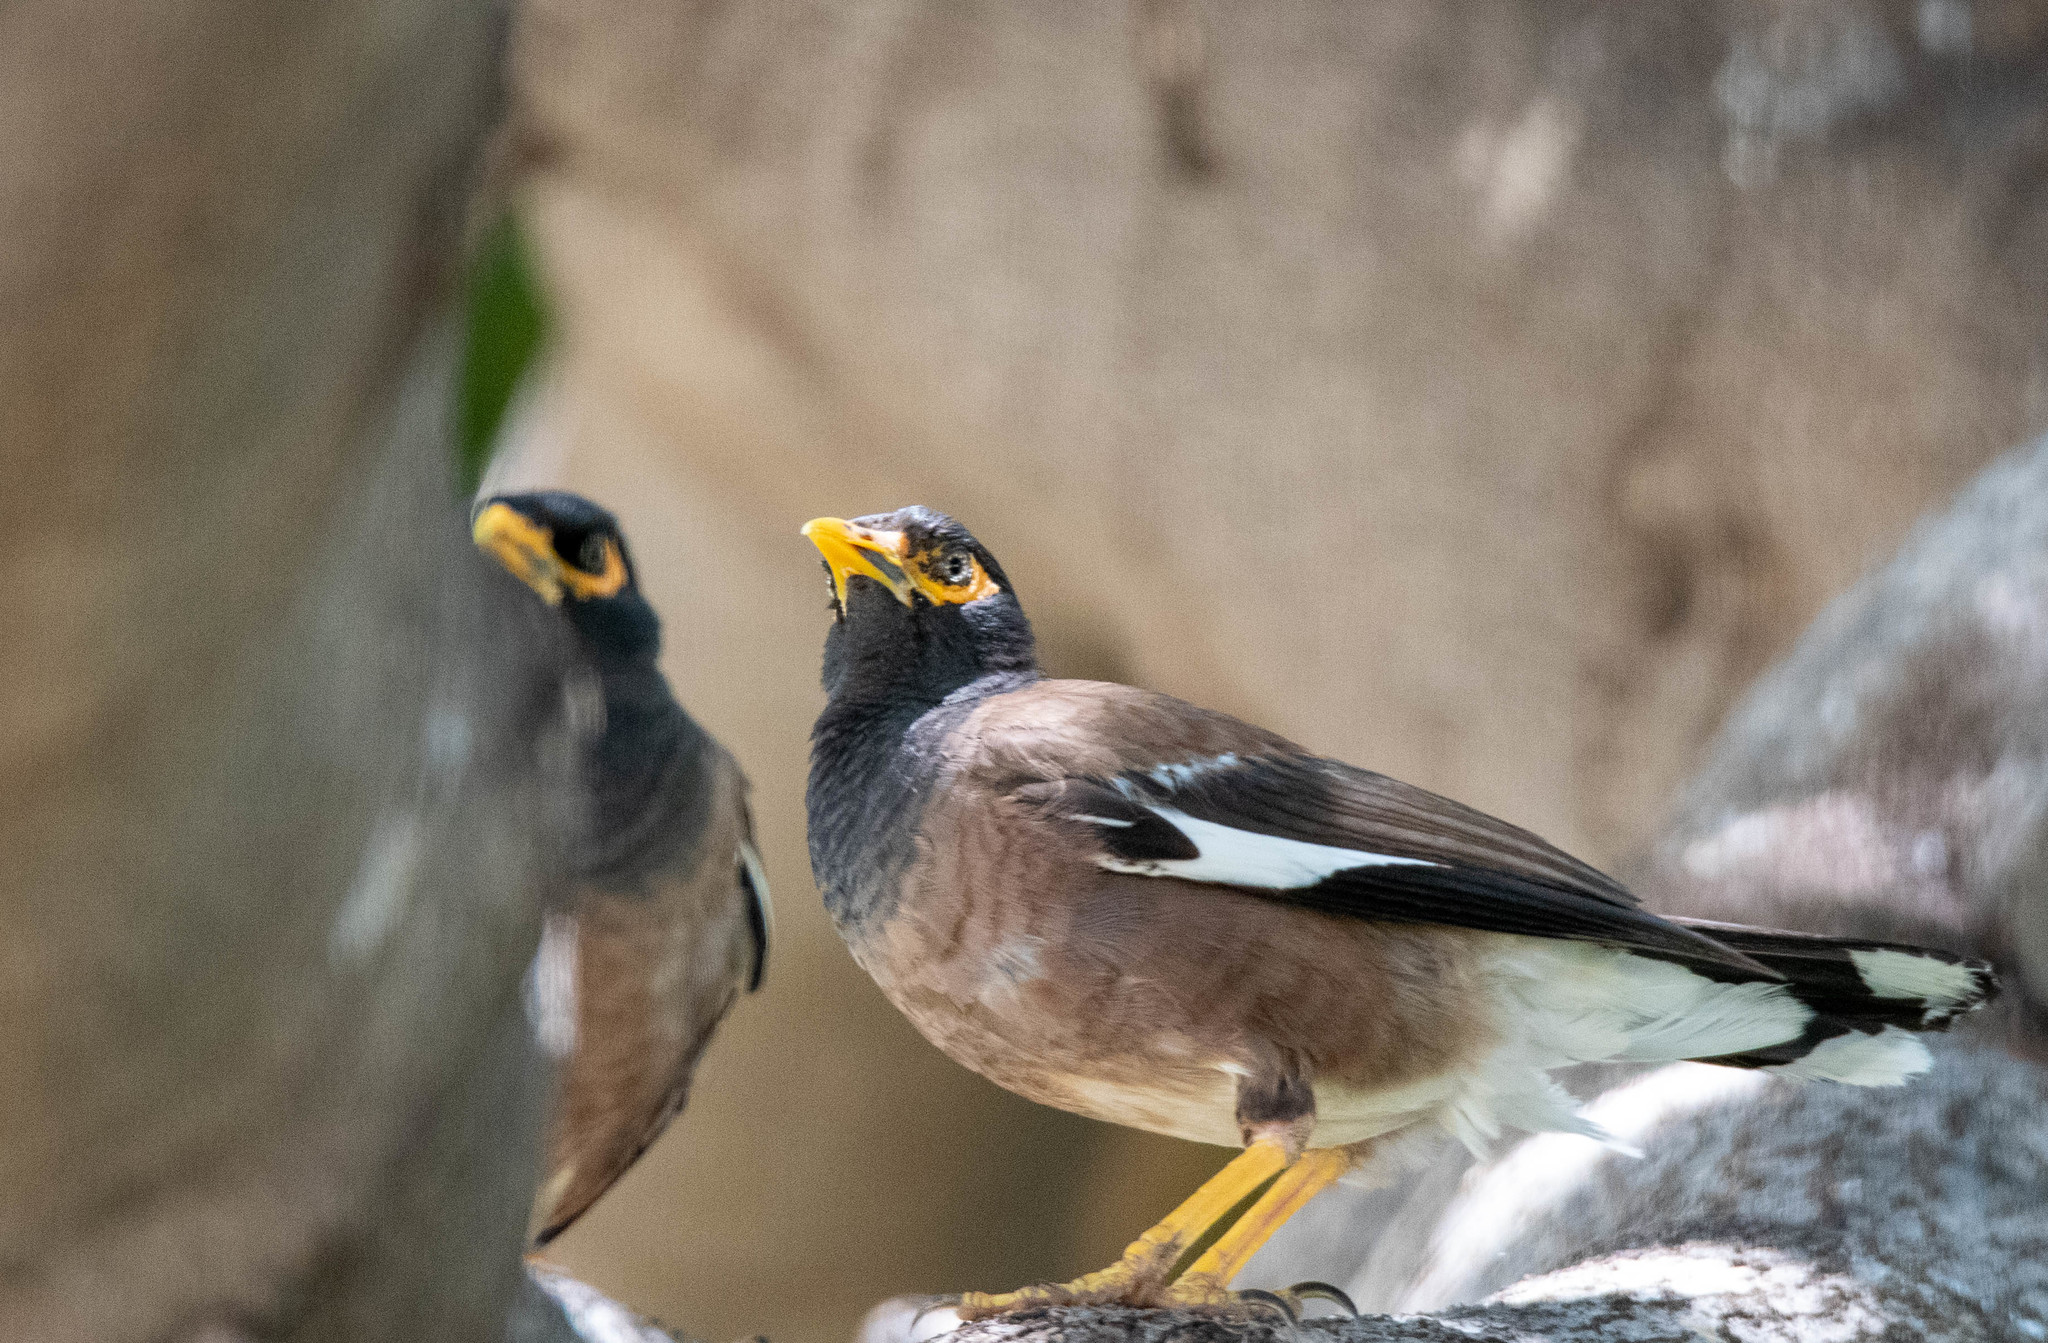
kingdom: Animalia
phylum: Chordata
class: Aves
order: Passeriformes
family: Sturnidae
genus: Acridotheres
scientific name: Acridotheres tristis
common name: Common myna
